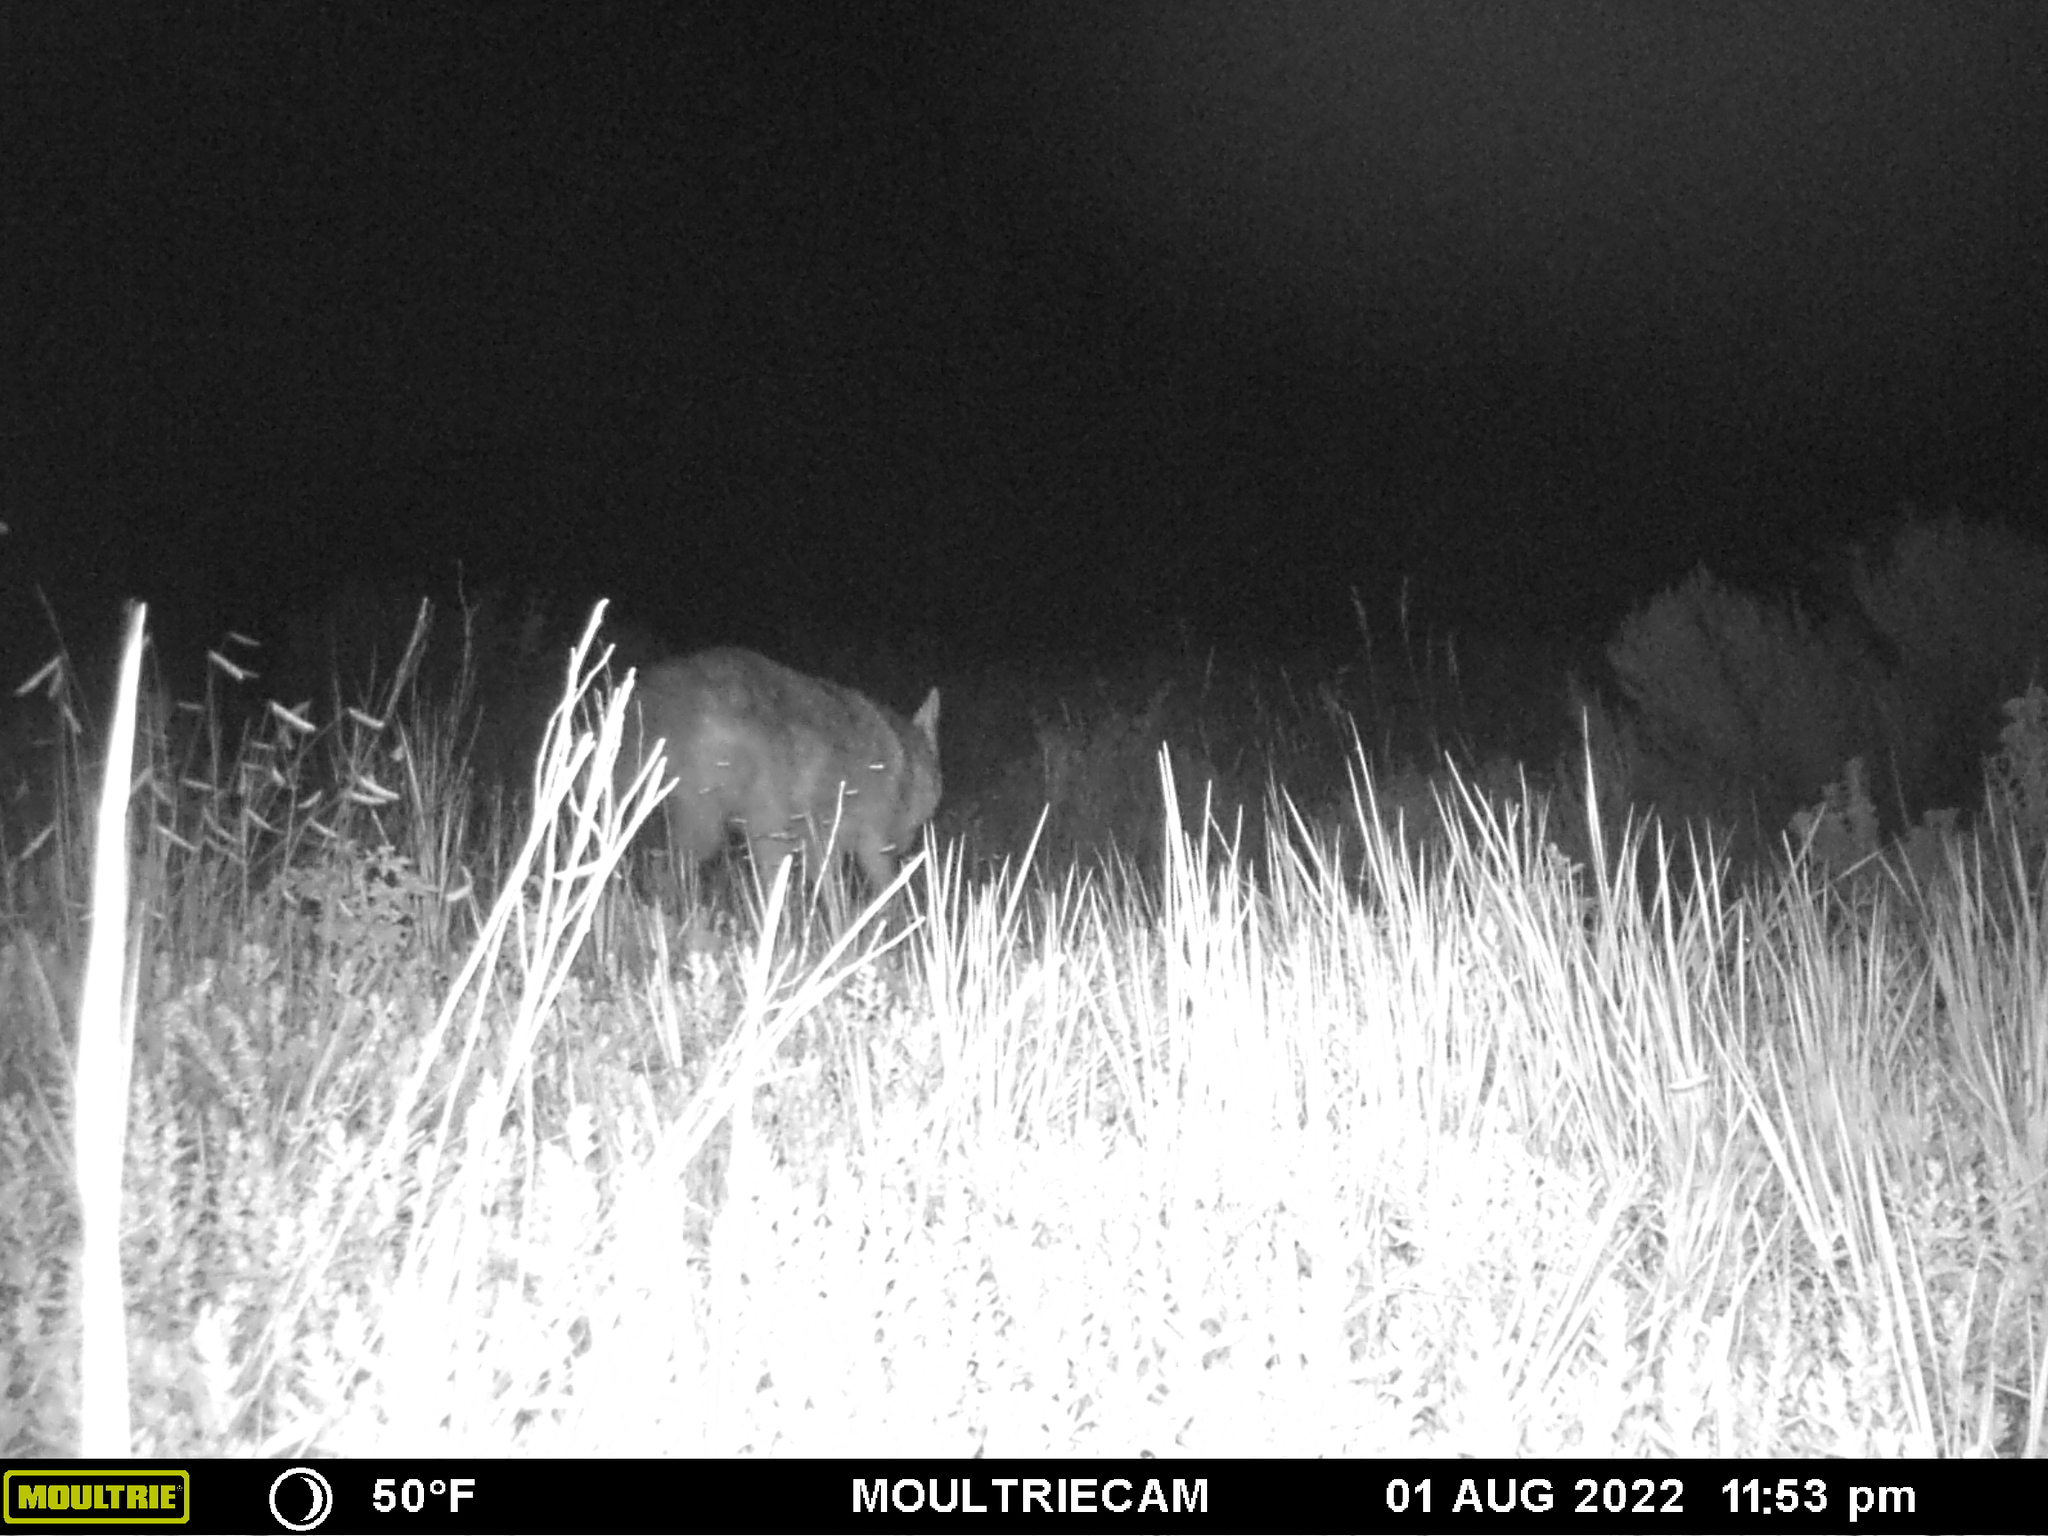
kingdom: Animalia
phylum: Chordata
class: Mammalia
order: Carnivora
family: Canidae
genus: Canis
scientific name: Canis latrans
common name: Coyote
